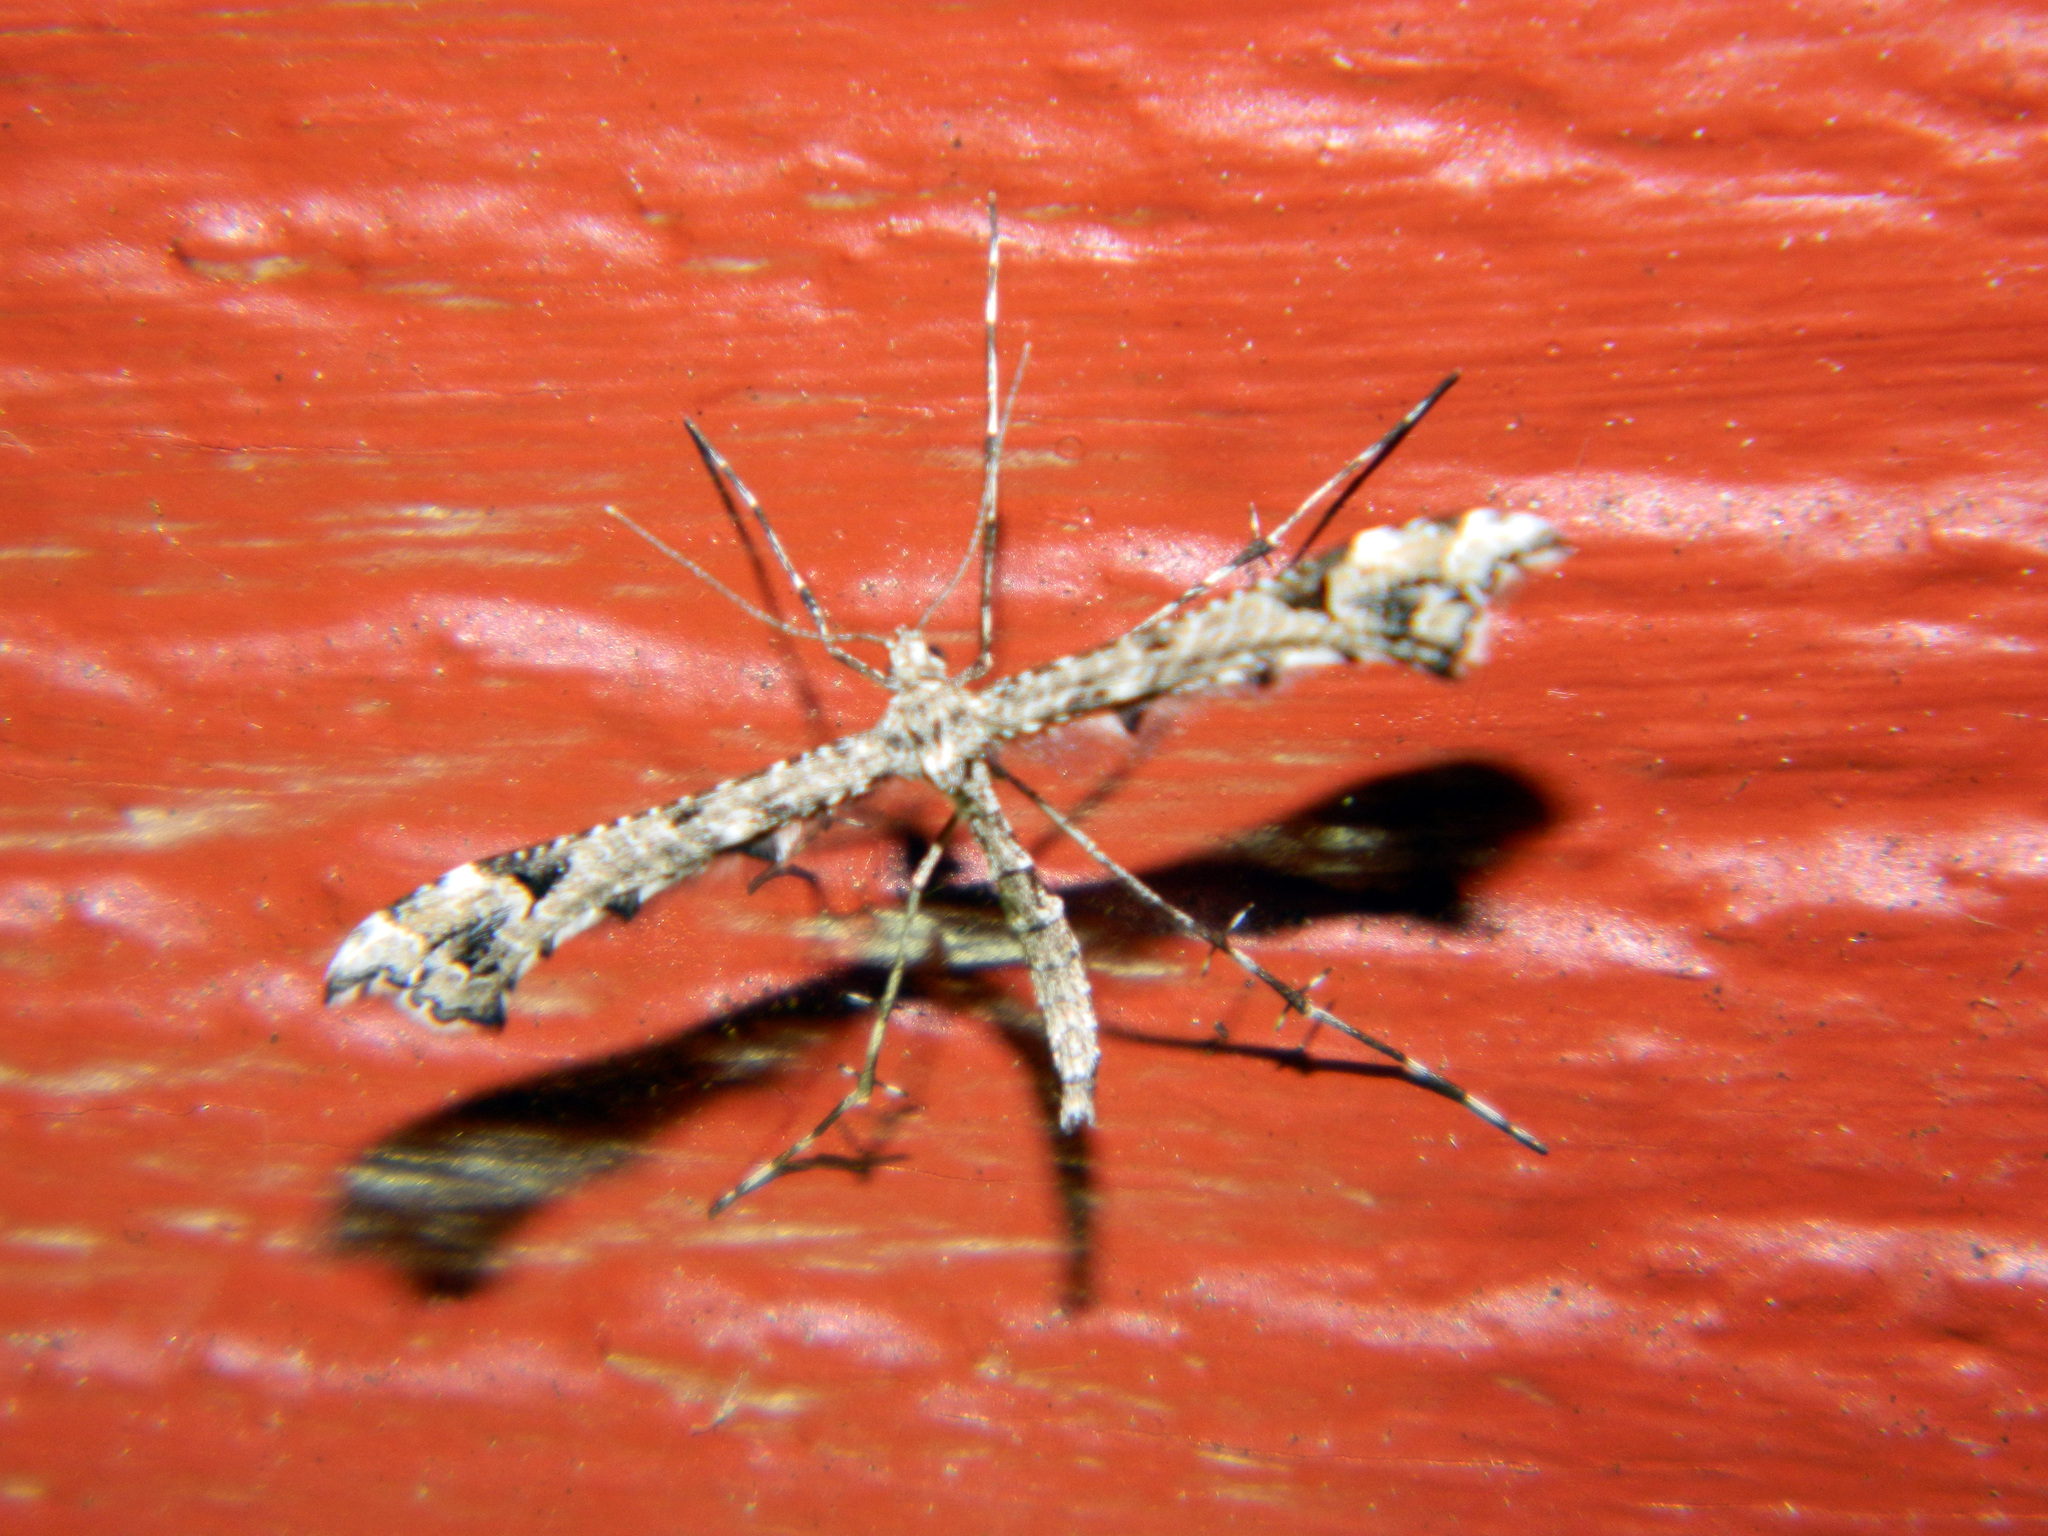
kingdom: Animalia
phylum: Arthropoda
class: Insecta
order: Lepidoptera
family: Pterophoridae
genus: Amblyptilia
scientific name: Amblyptilia pica
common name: Geranium plume moth
